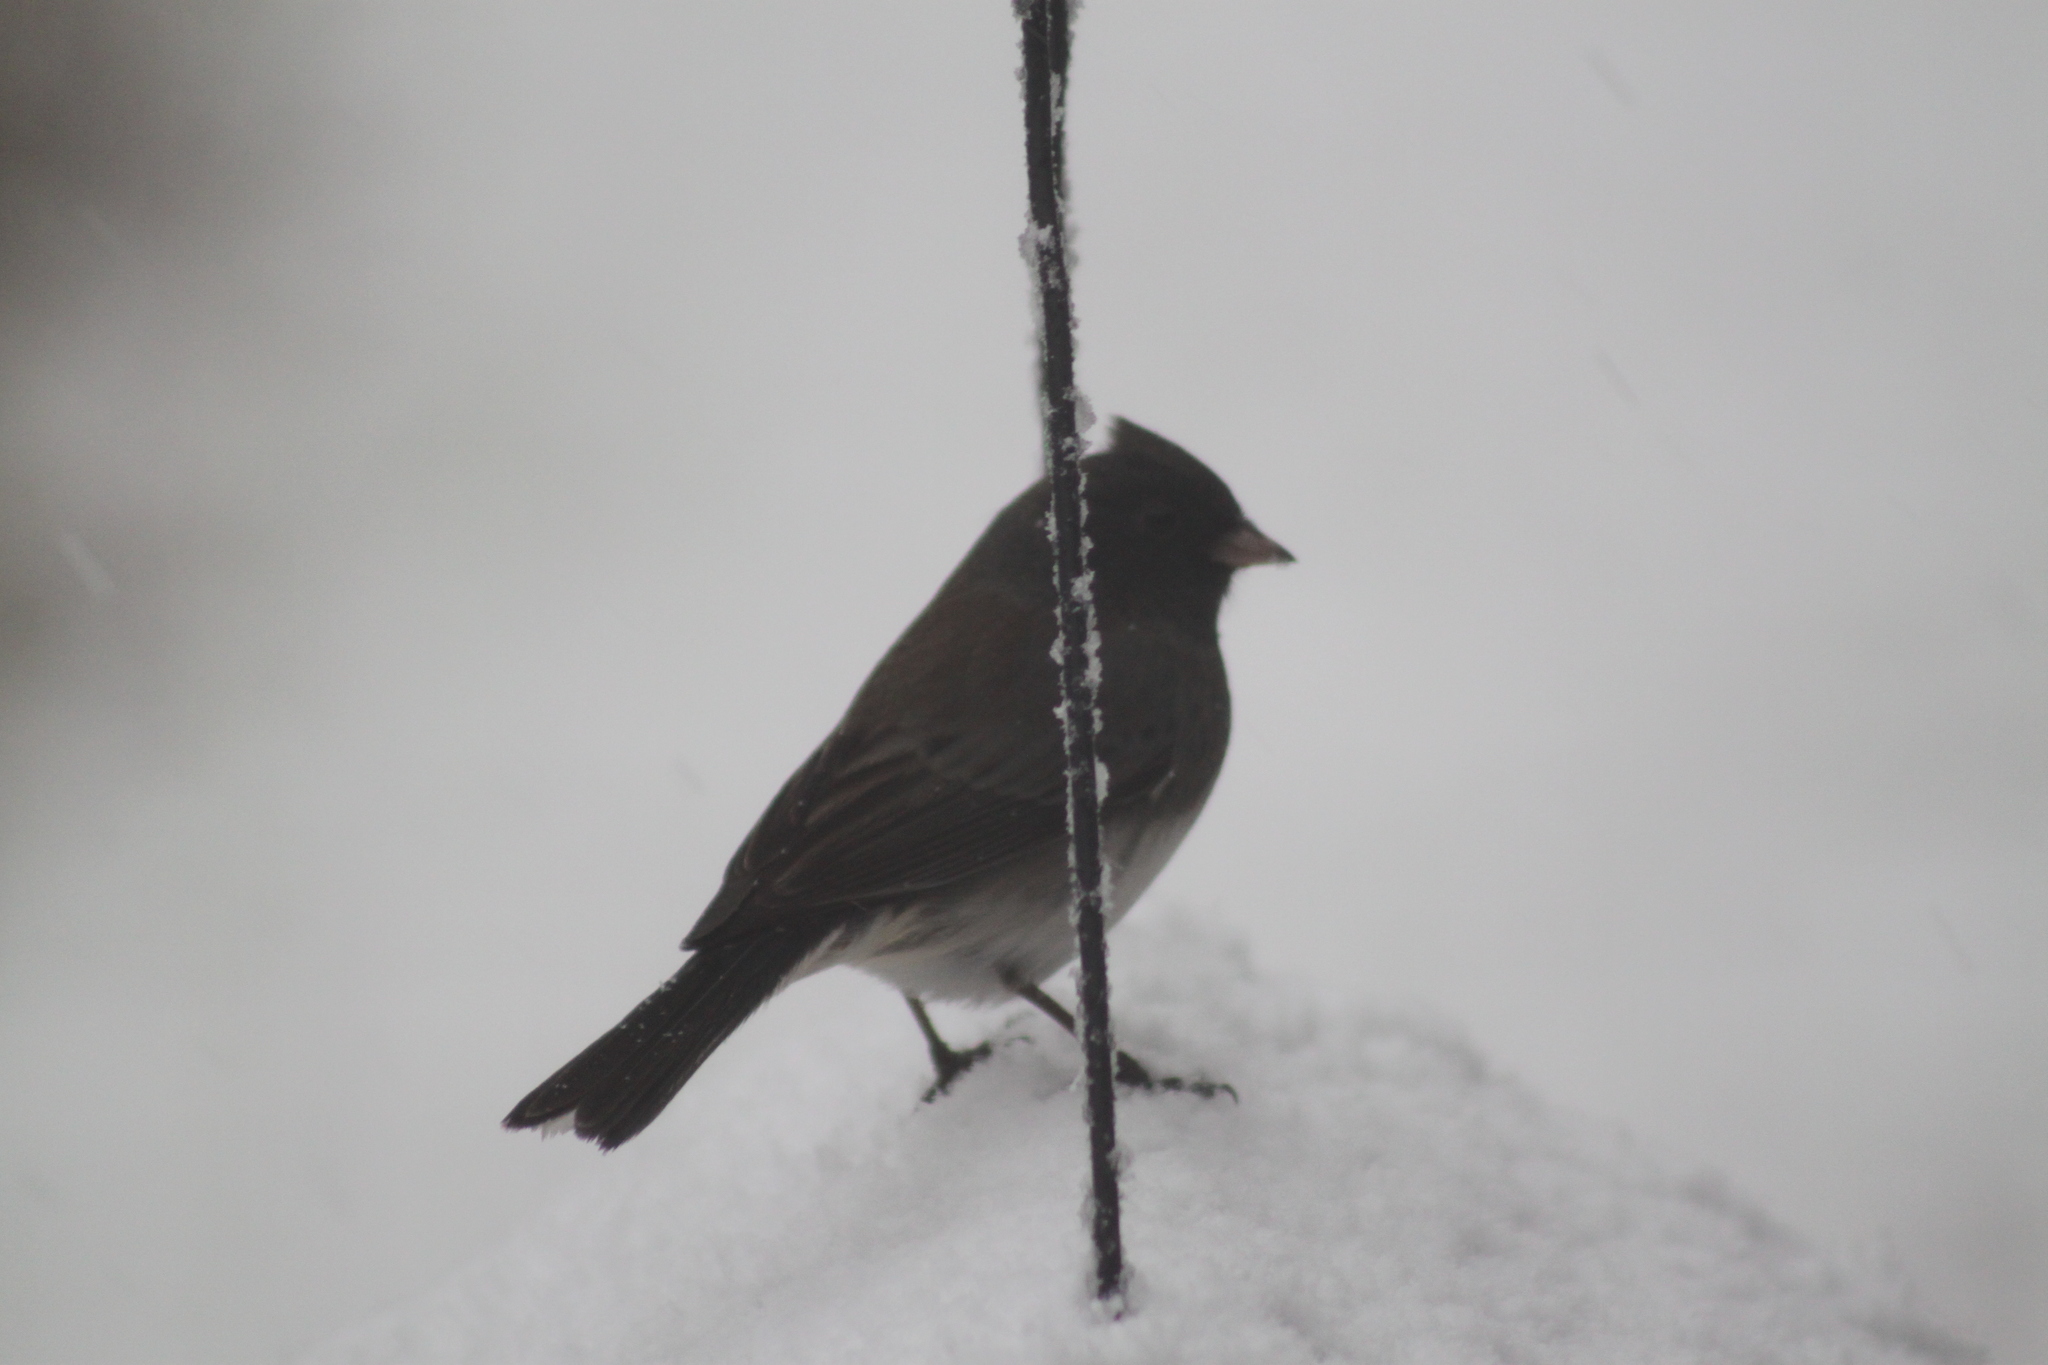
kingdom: Animalia
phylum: Chordata
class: Aves
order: Passeriformes
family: Passerellidae
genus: Junco
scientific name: Junco hyemalis
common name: Dark-eyed junco
